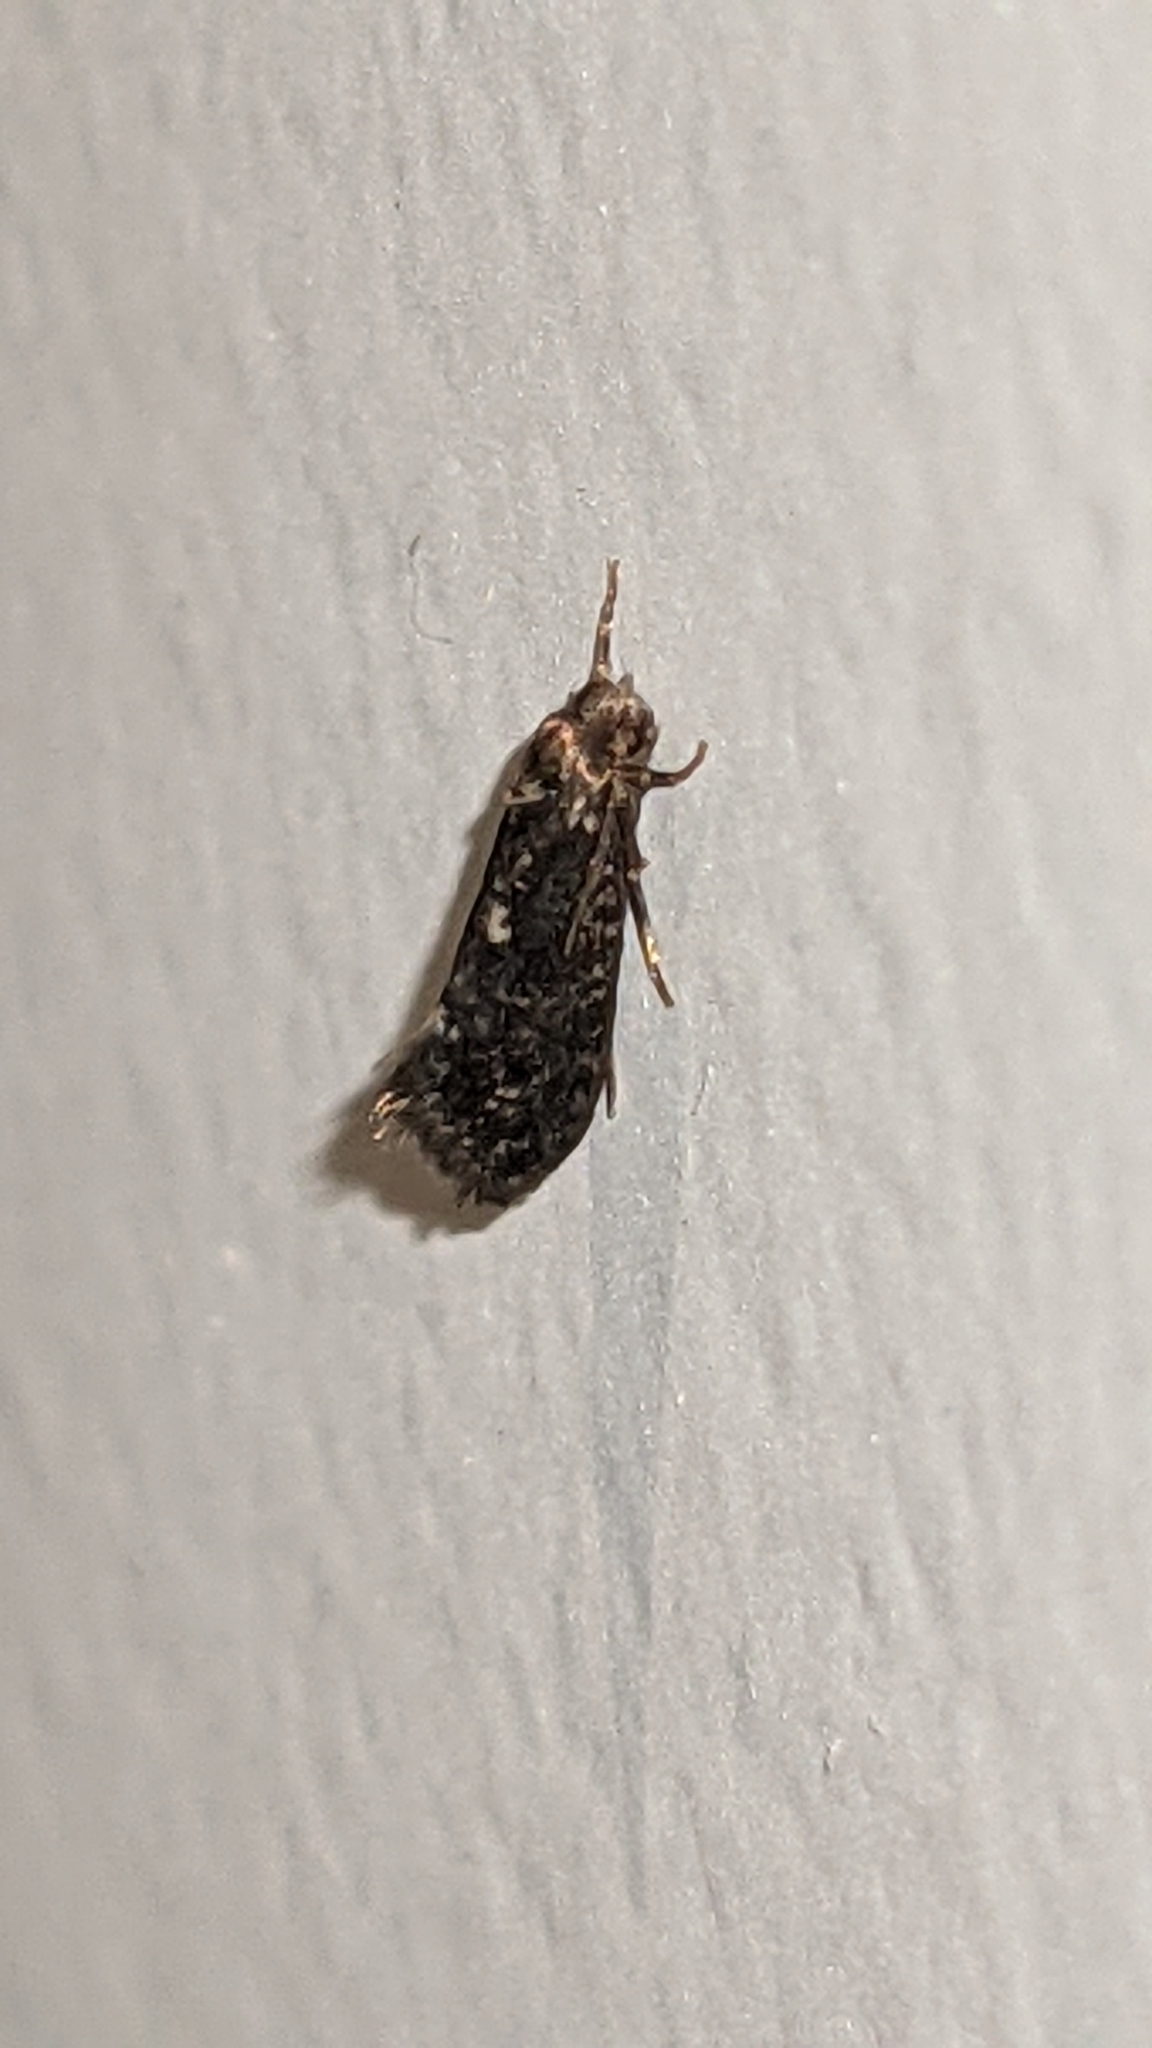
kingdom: Animalia
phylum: Arthropoda
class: Insecta
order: Lepidoptera
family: Psychidae
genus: Rhathamictis
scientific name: Rhathamictis perspersa
